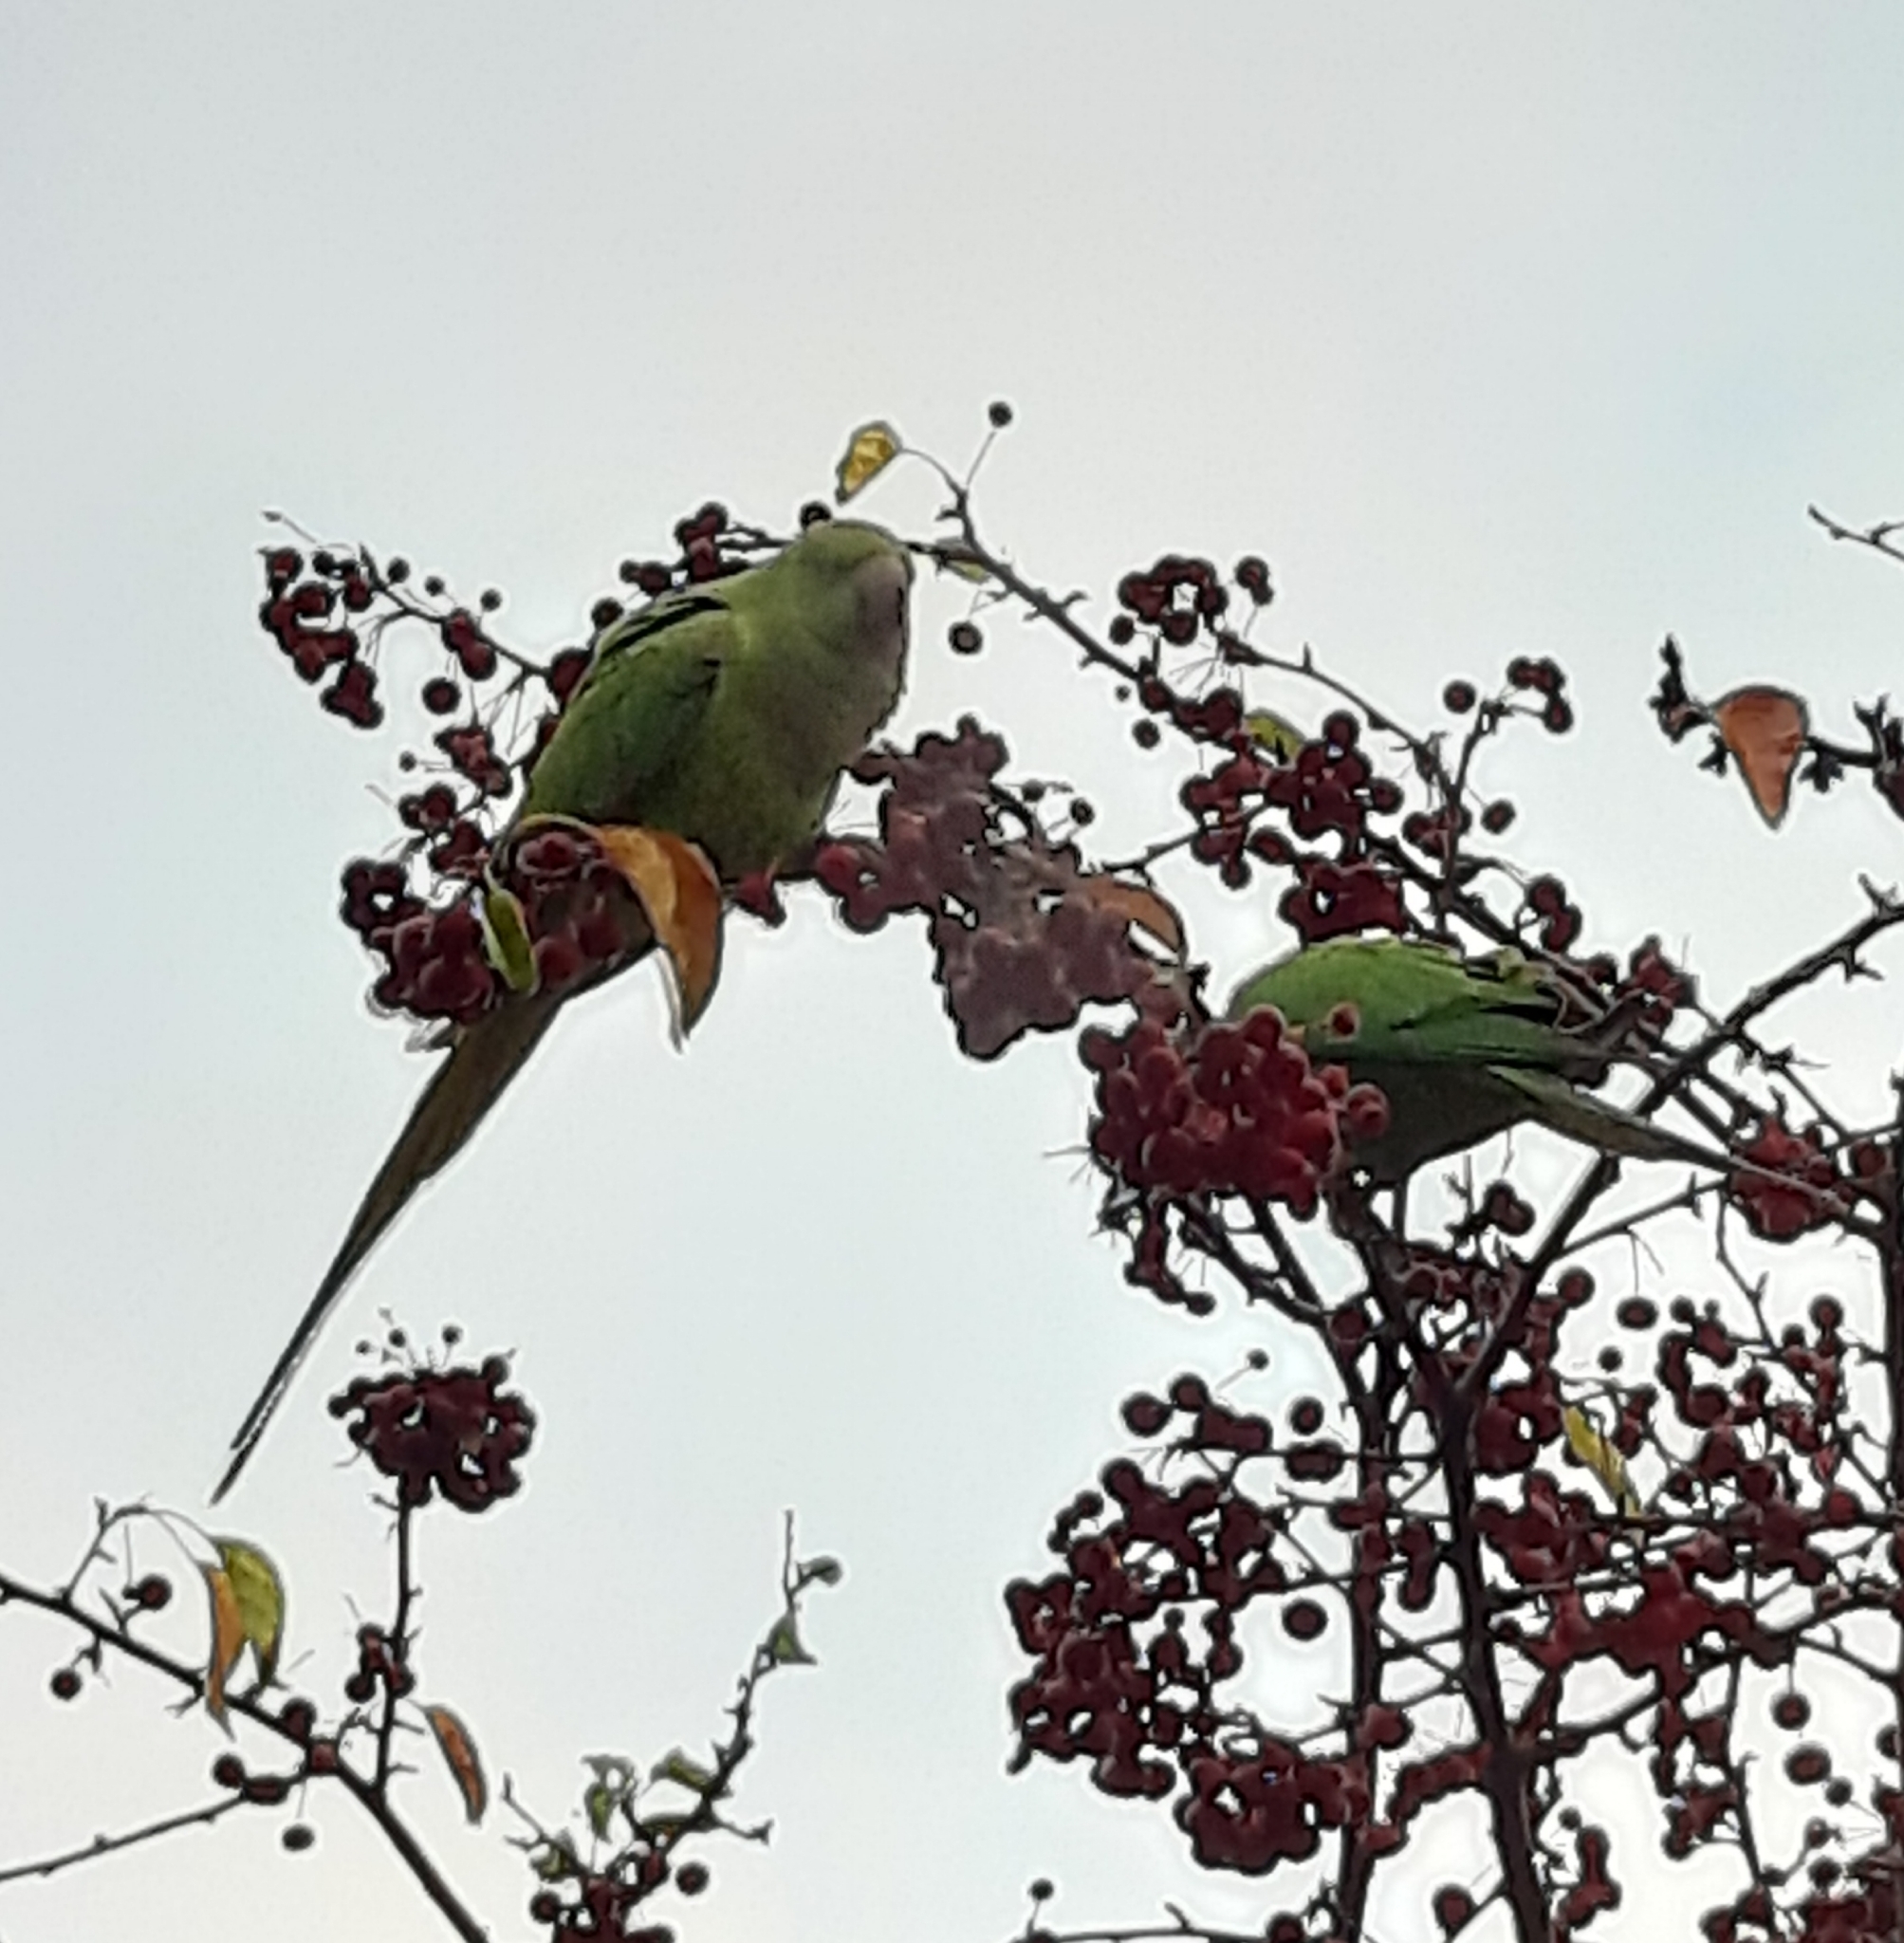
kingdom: Animalia
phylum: Chordata
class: Aves
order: Psittaciformes
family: Psittacidae
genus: Psittacula
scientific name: Psittacula krameri
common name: Rose-ringed parakeet
